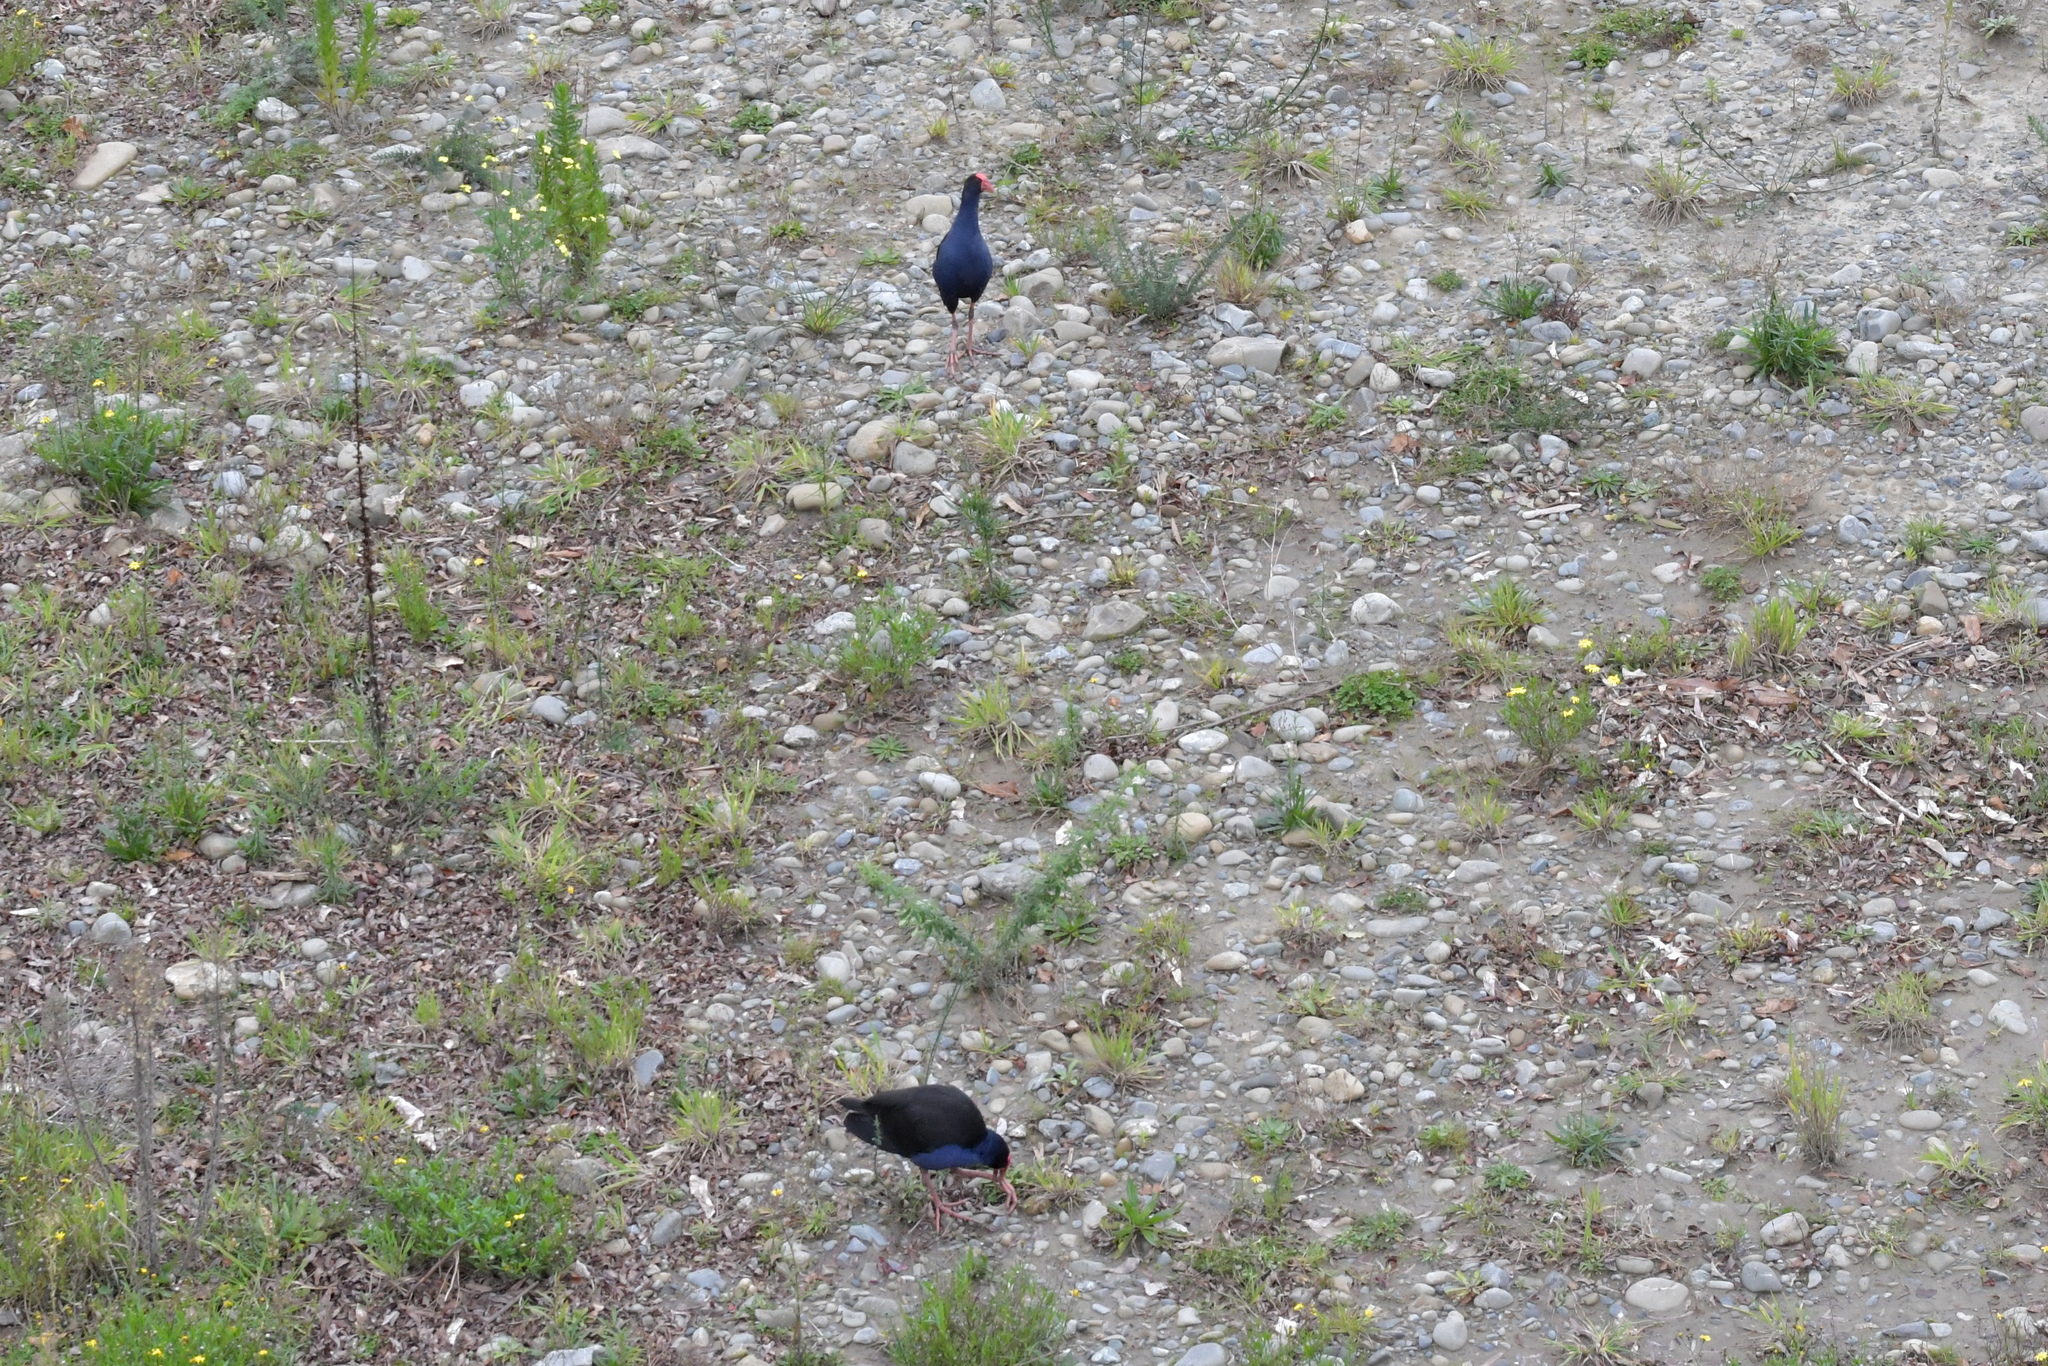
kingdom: Animalia
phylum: Chordata
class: Aves
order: Gruiformes
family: Rallidae
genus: Porphyrio
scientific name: Porphyrio melanotus
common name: Australasian swamphen
